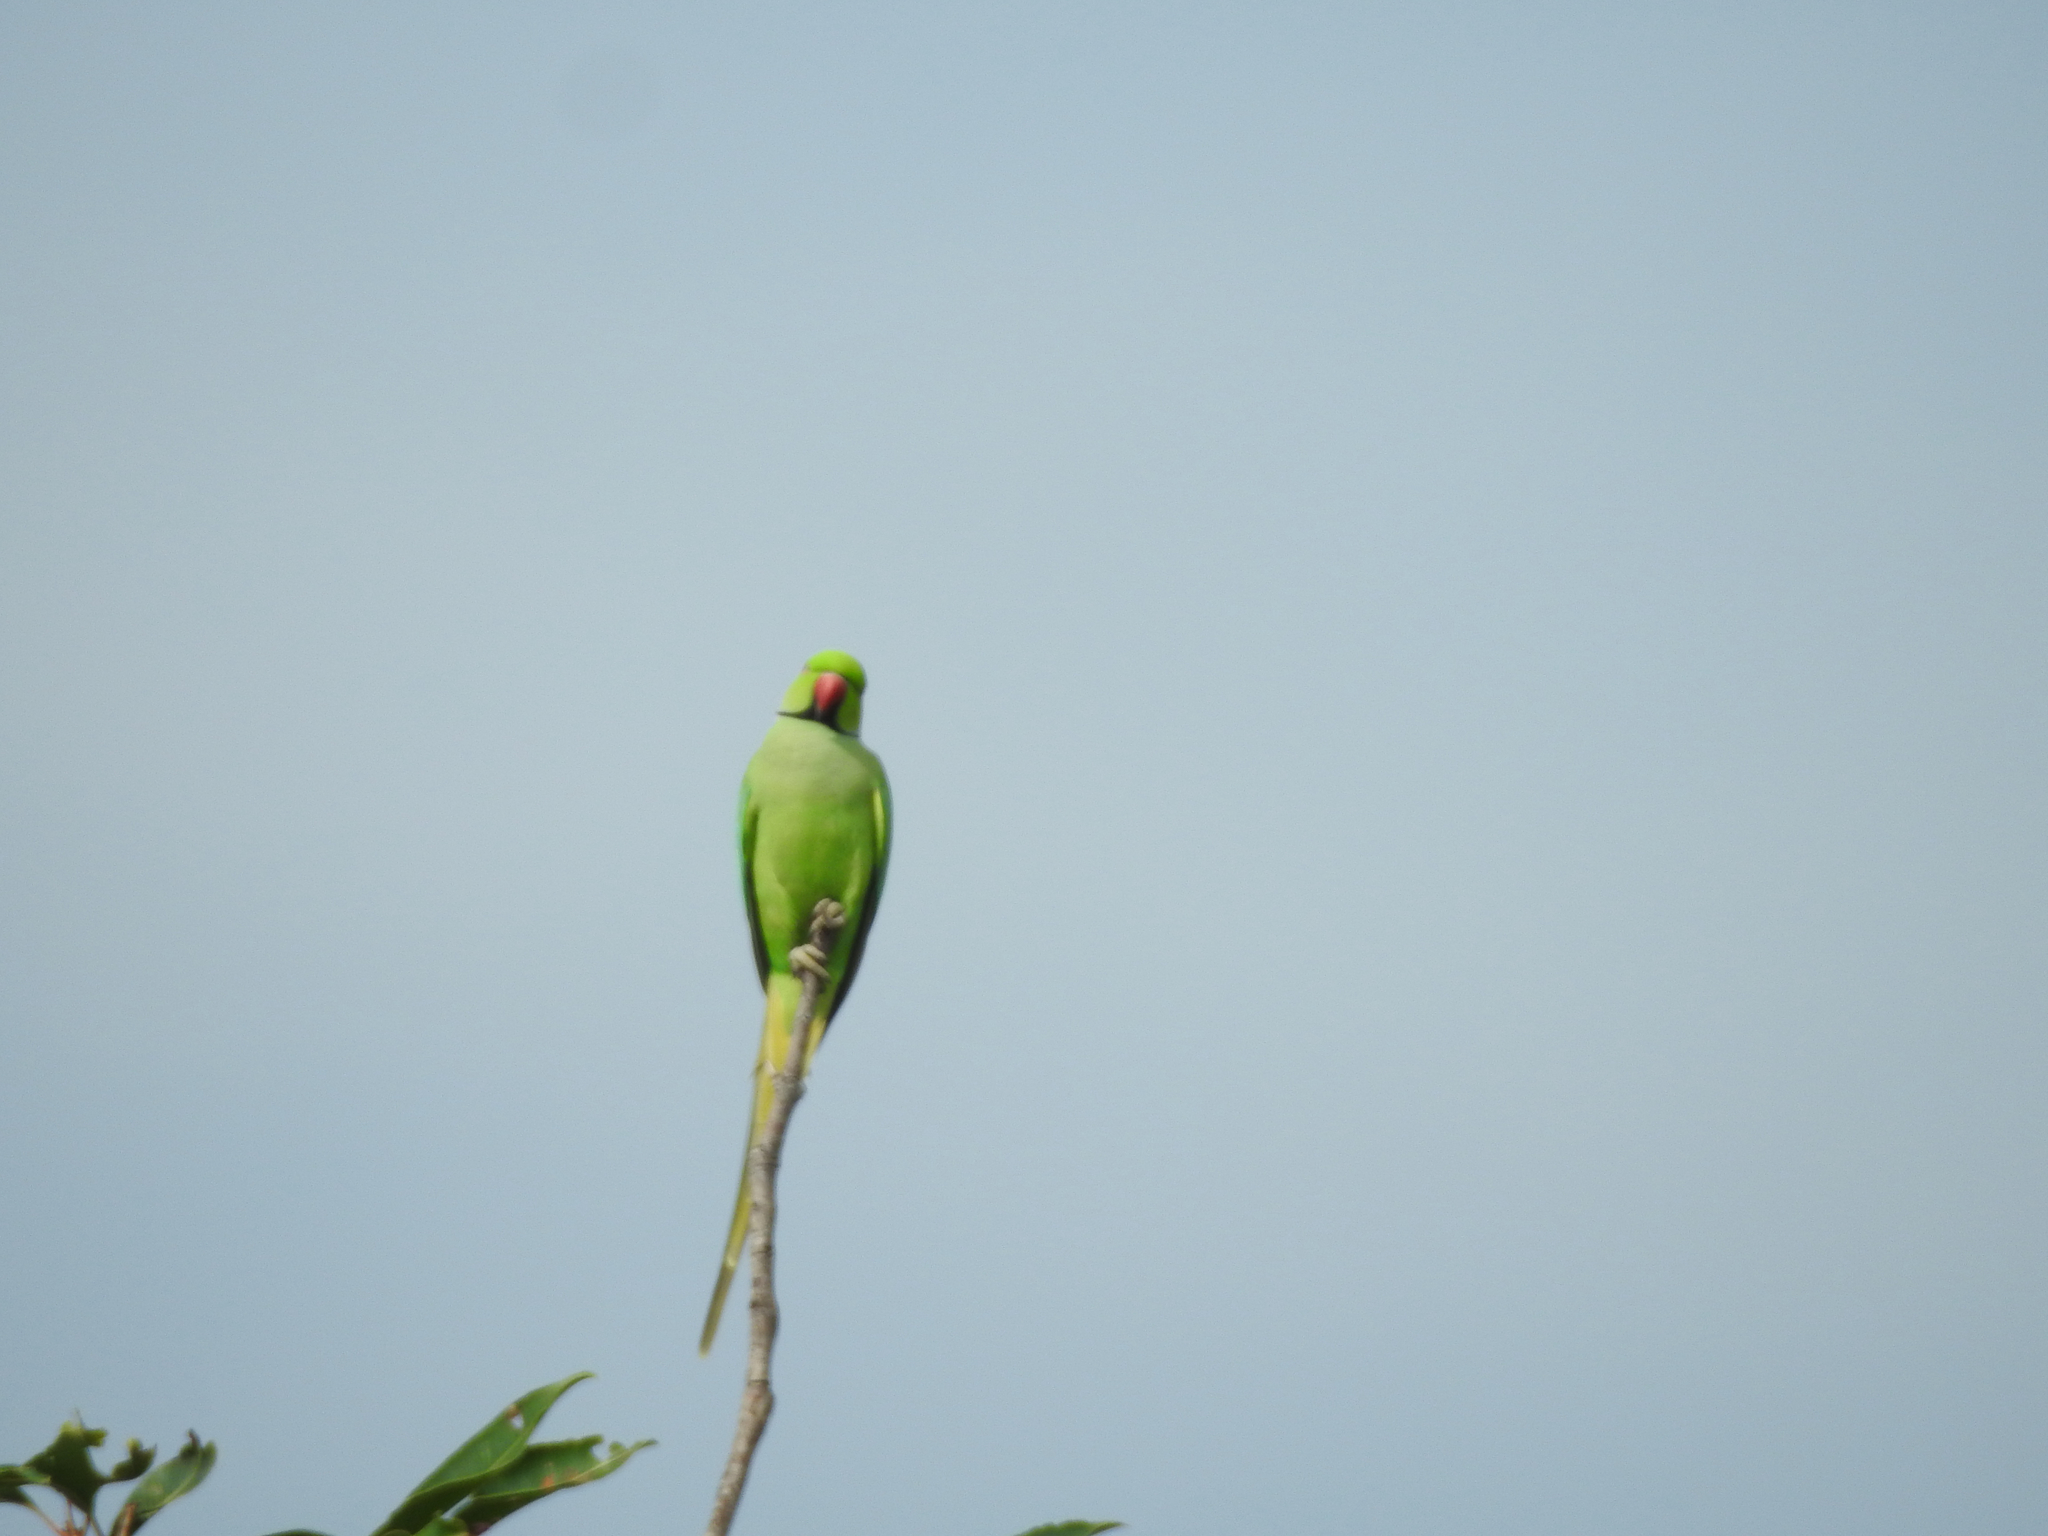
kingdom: Animalia
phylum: Chordata
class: Aves
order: Psittaciformes
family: Psittacidae
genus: Psittacula
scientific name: Psittacula krameri
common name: Rose-ringed parakeet
